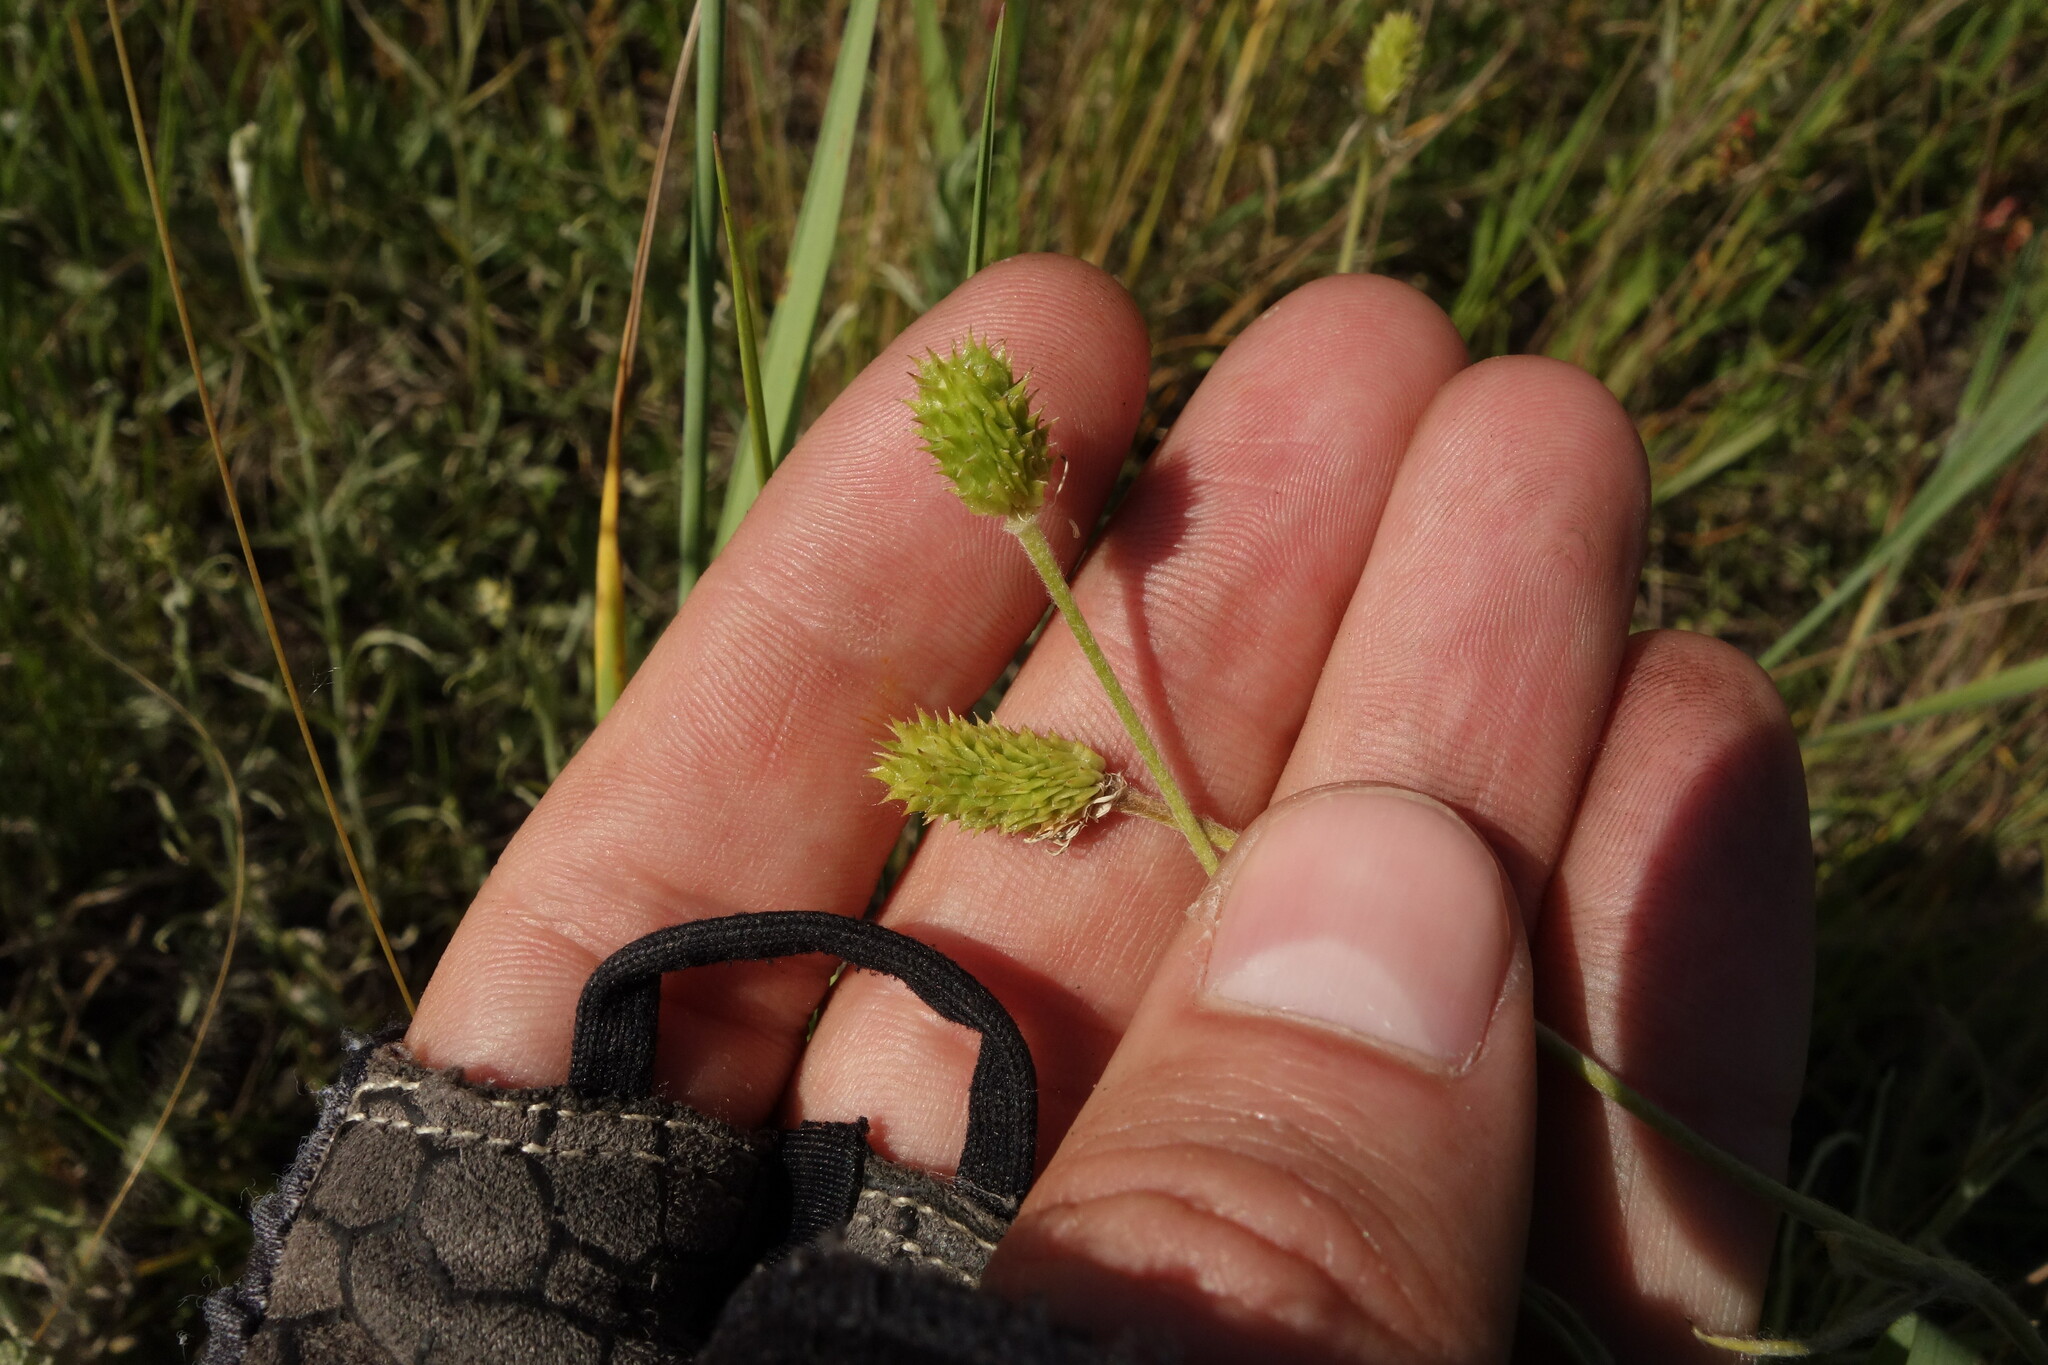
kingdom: Plantae
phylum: Tracheophyta
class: Magnoliopsida
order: Ranunculales
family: Ranunculaceae
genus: Ranunculus
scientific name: Ranunculus illyricus
